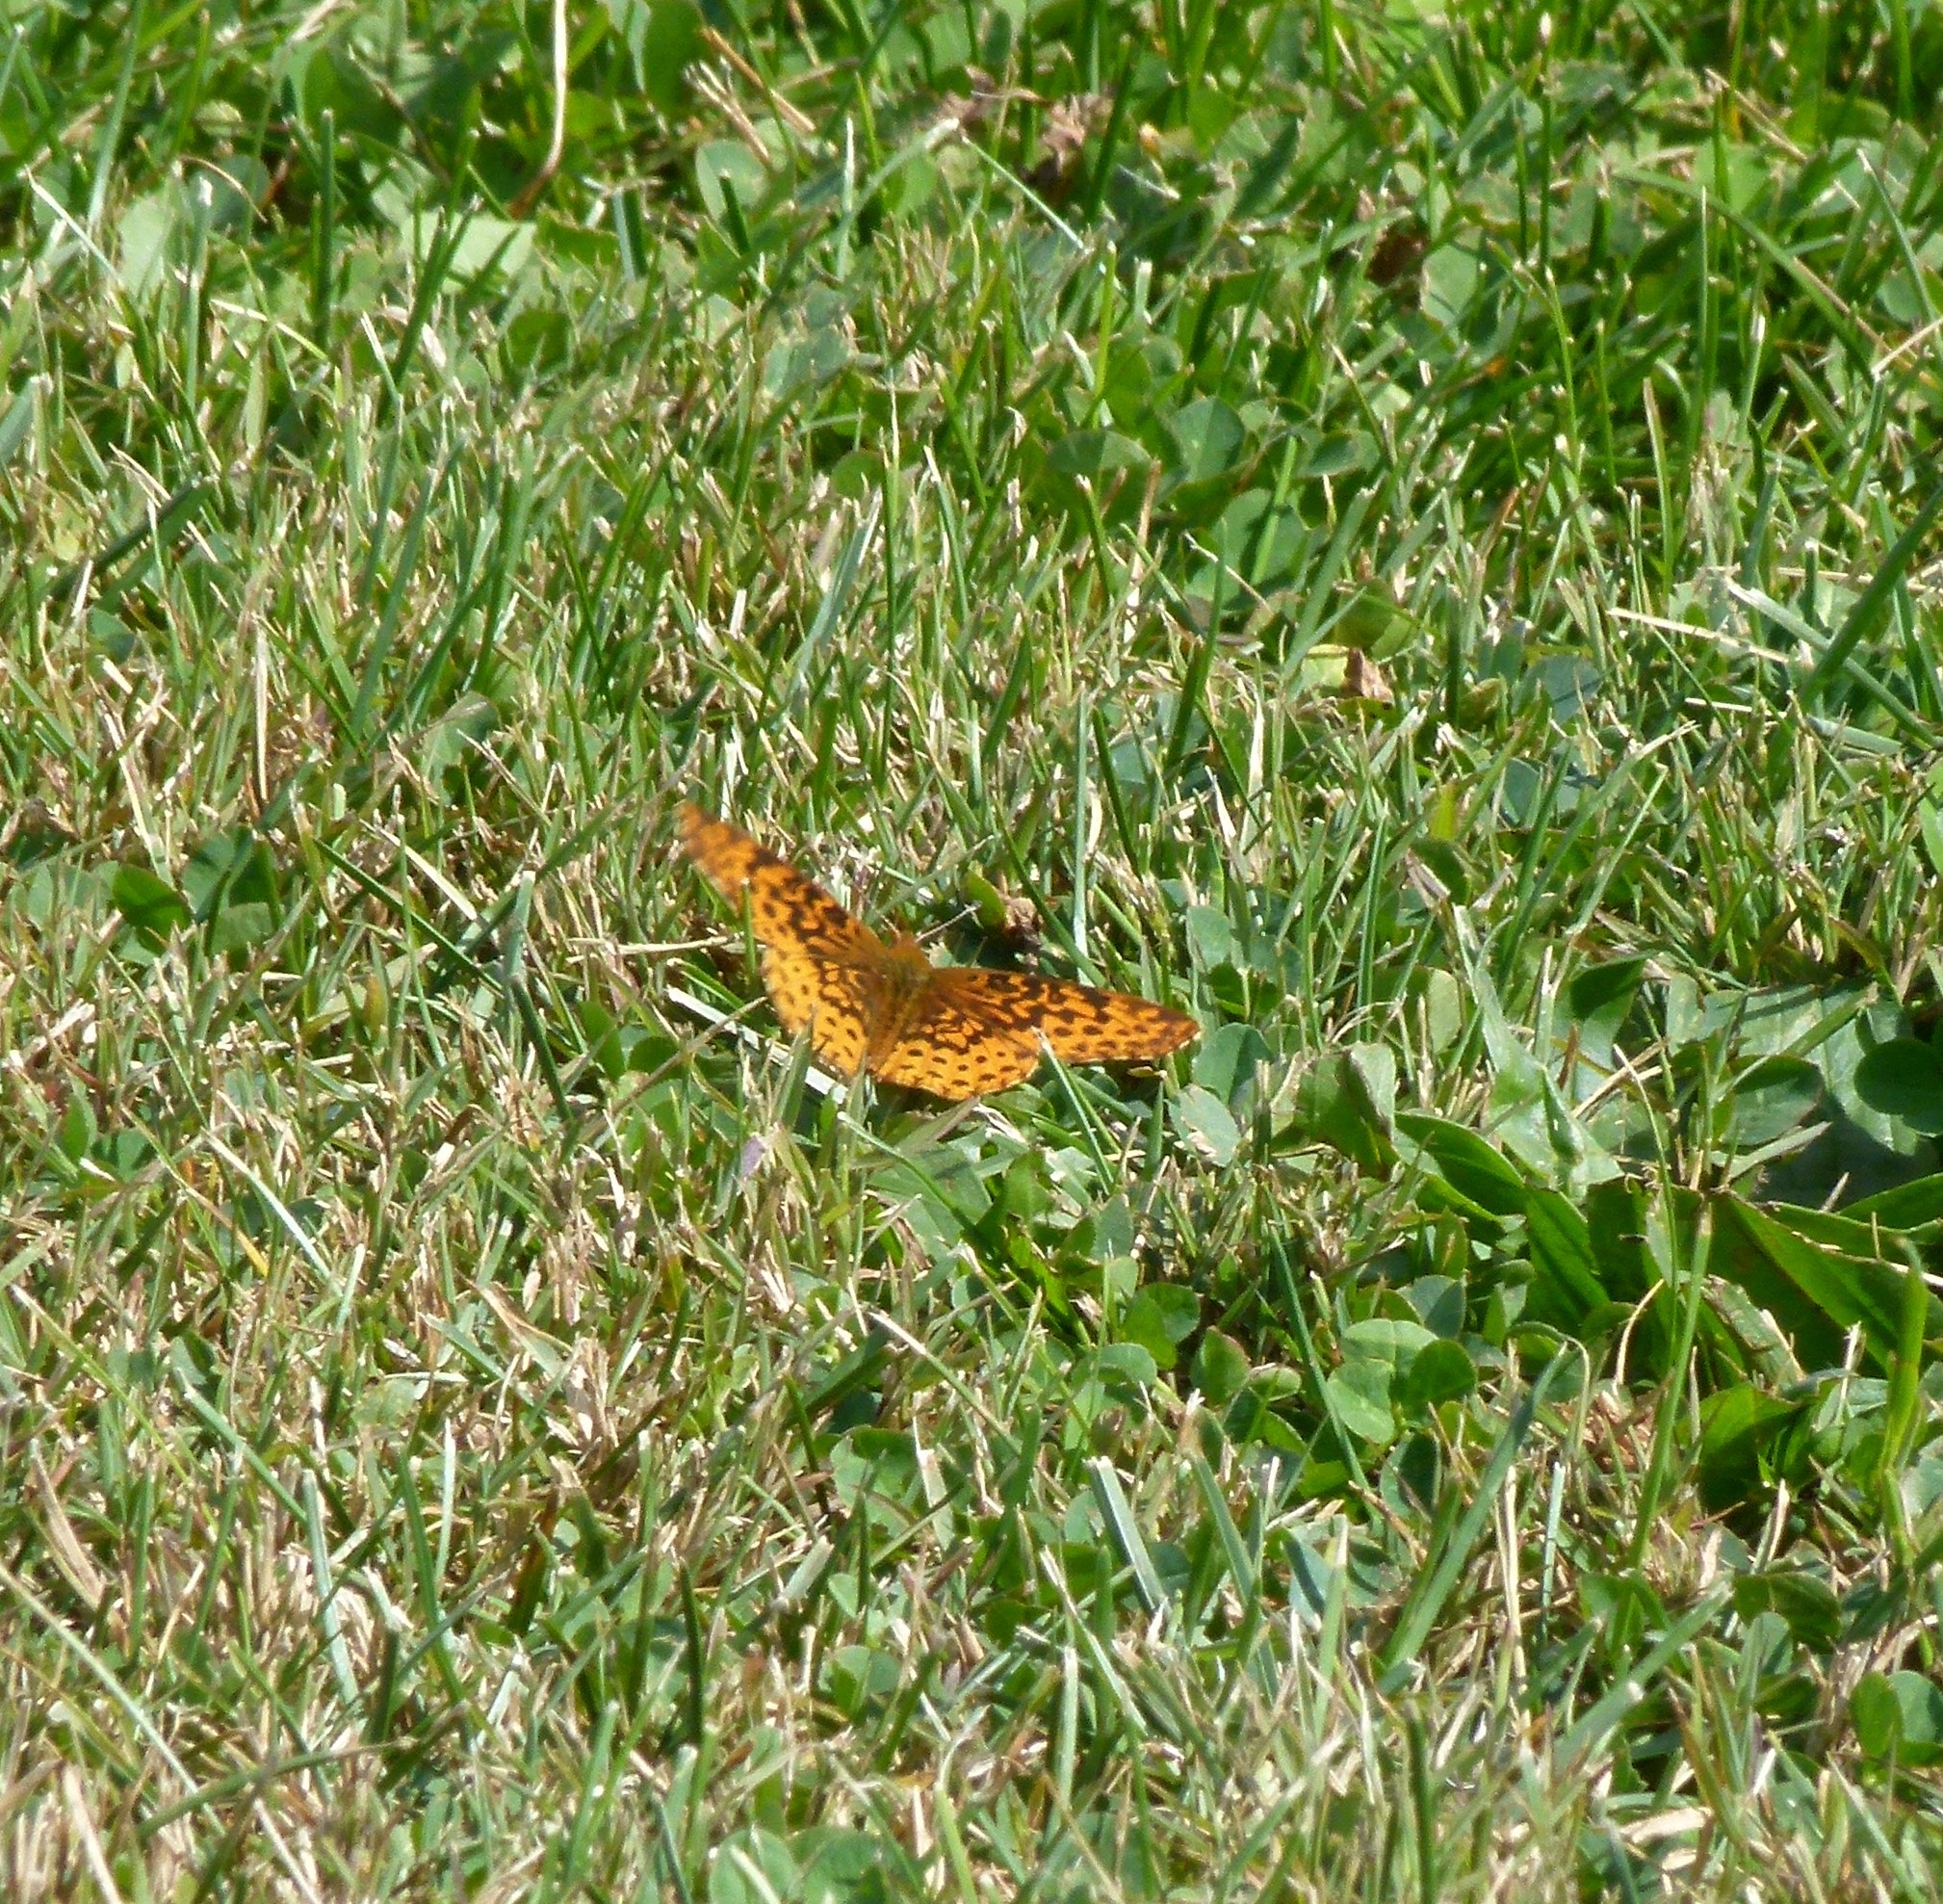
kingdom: Animalia
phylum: Arthropoda
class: Insecta
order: Lepidoptera
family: Nymphalidae
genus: Clossiana
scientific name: Clossiana toddi
